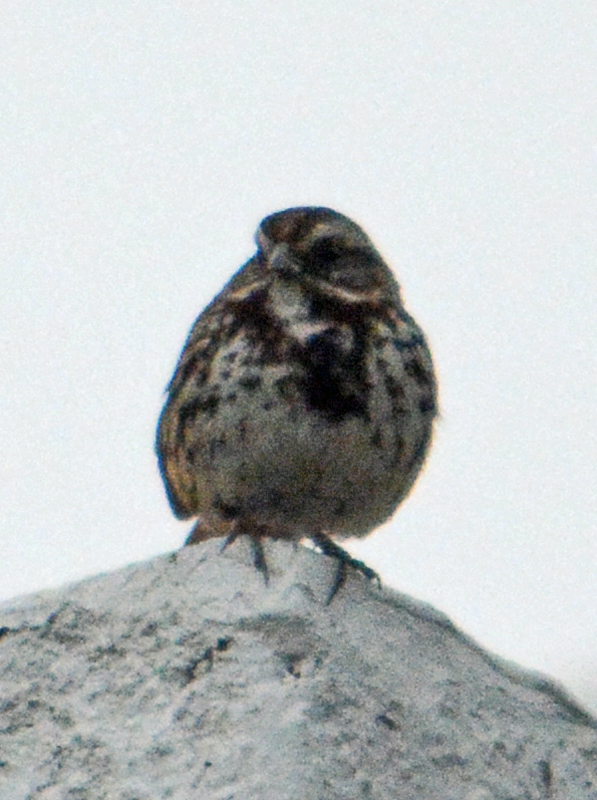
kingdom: Animalia
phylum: Chordata
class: Aves
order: Passeriformes
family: Passerellidae
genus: Melospiza
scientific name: Melospiza melodia
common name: Song sparrow
